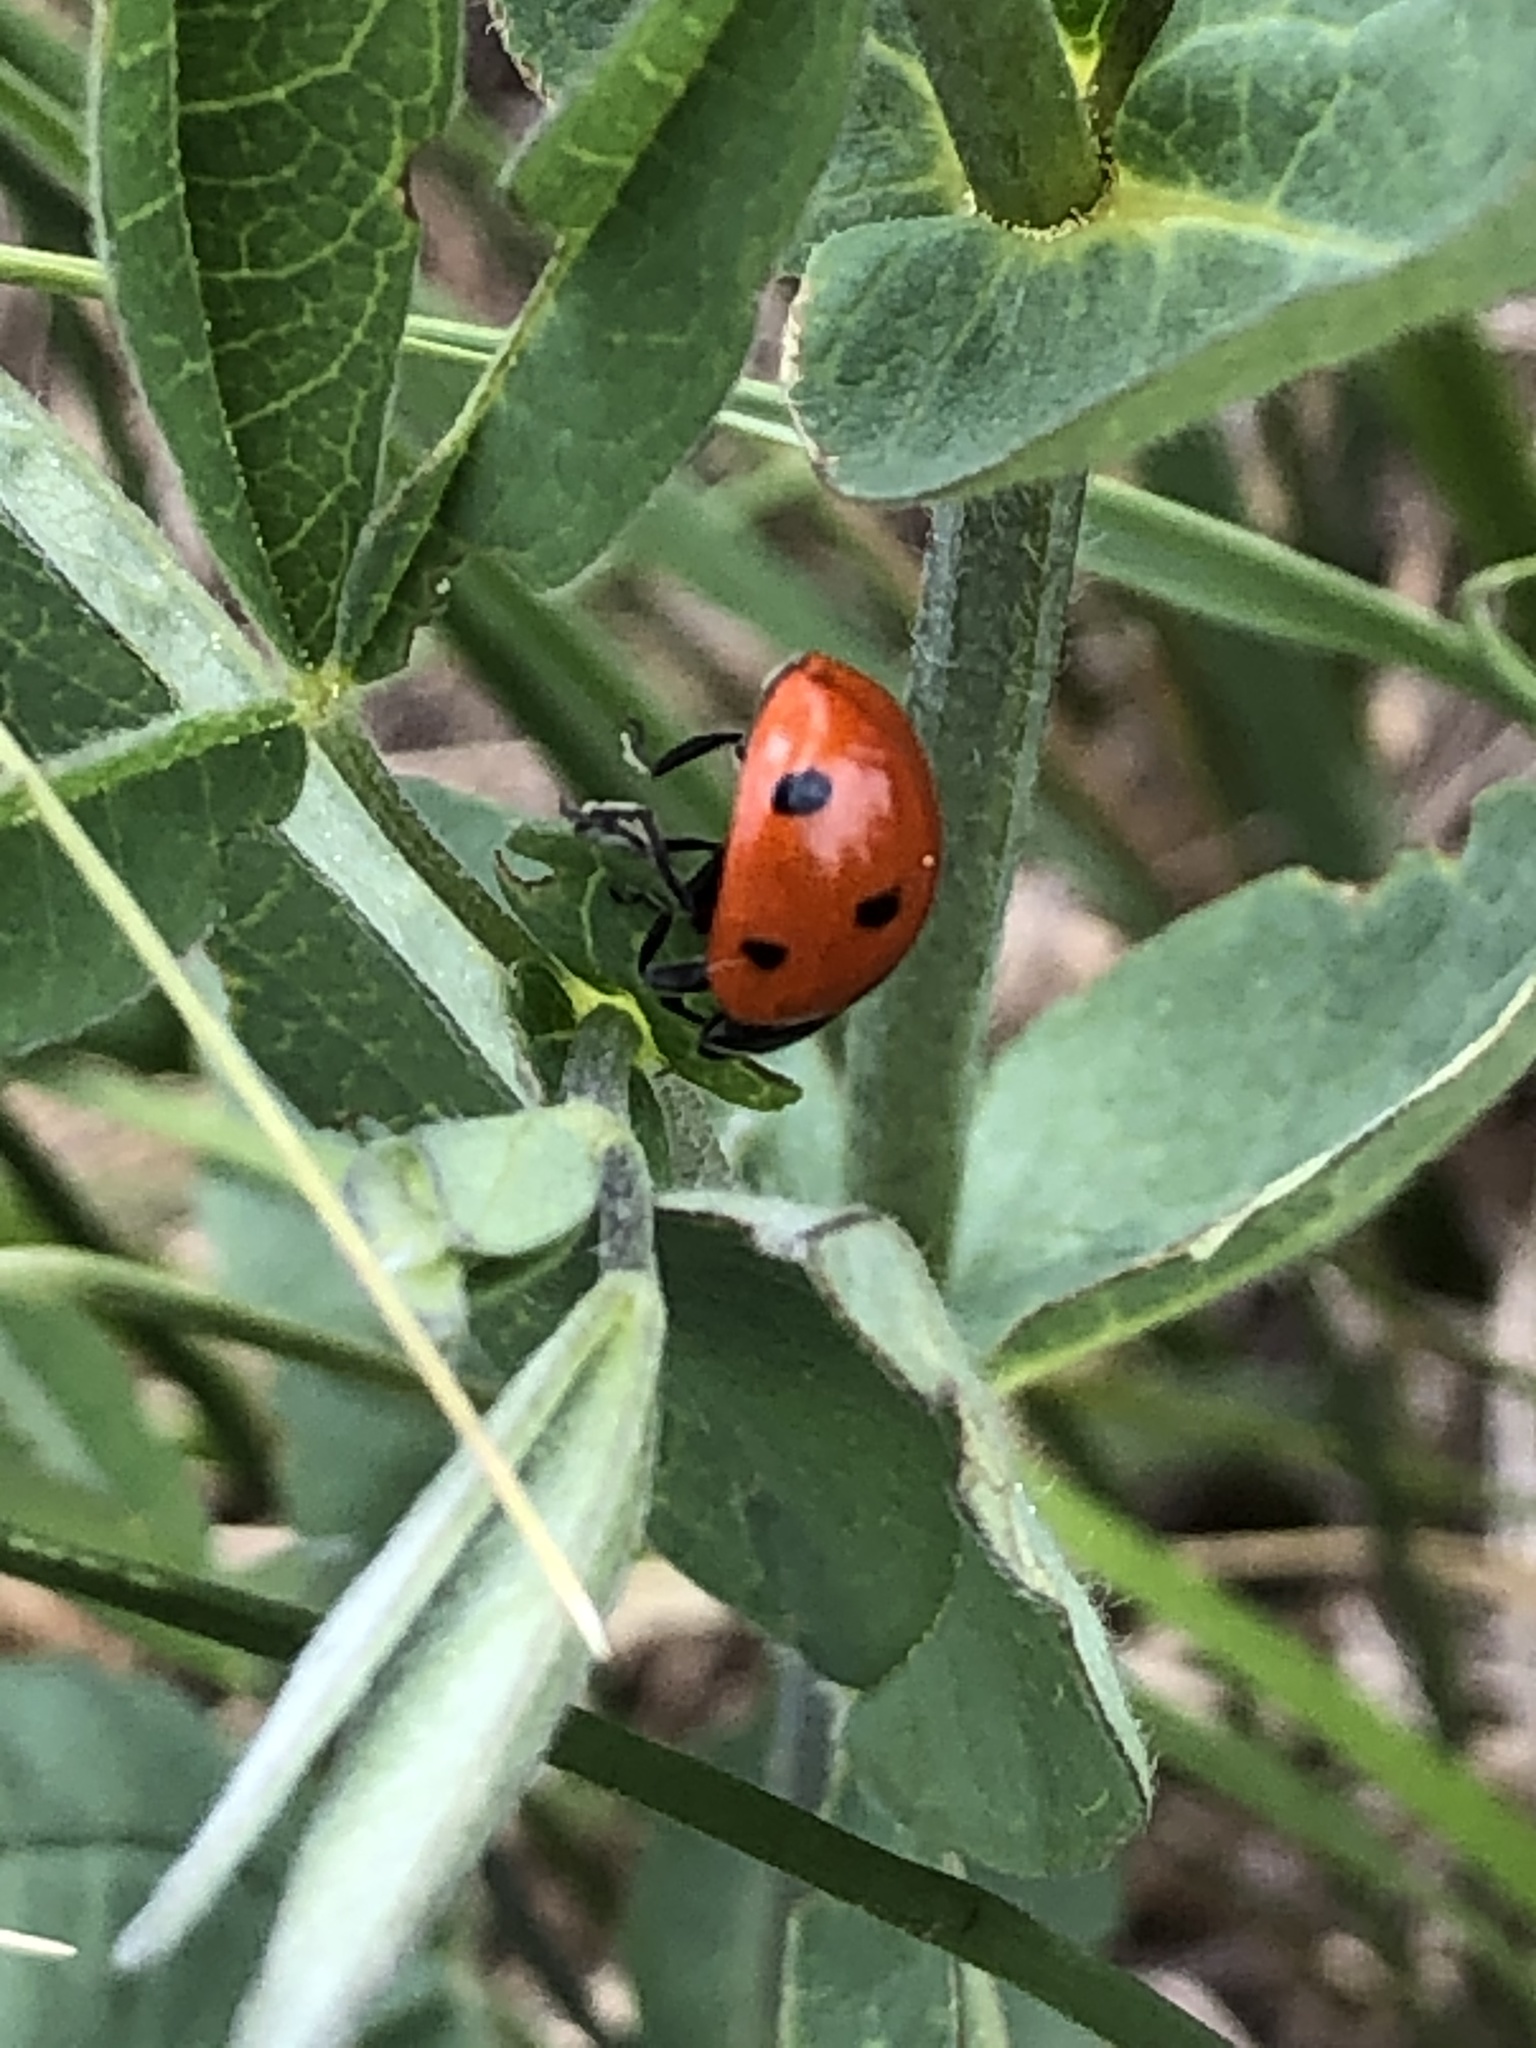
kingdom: Animalia
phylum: Arthropoda
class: Insecta
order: Coleoptera
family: Coccinellidae
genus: Coccinella
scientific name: Coccinella septempunctata
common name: Sevenspotted lady beetle
